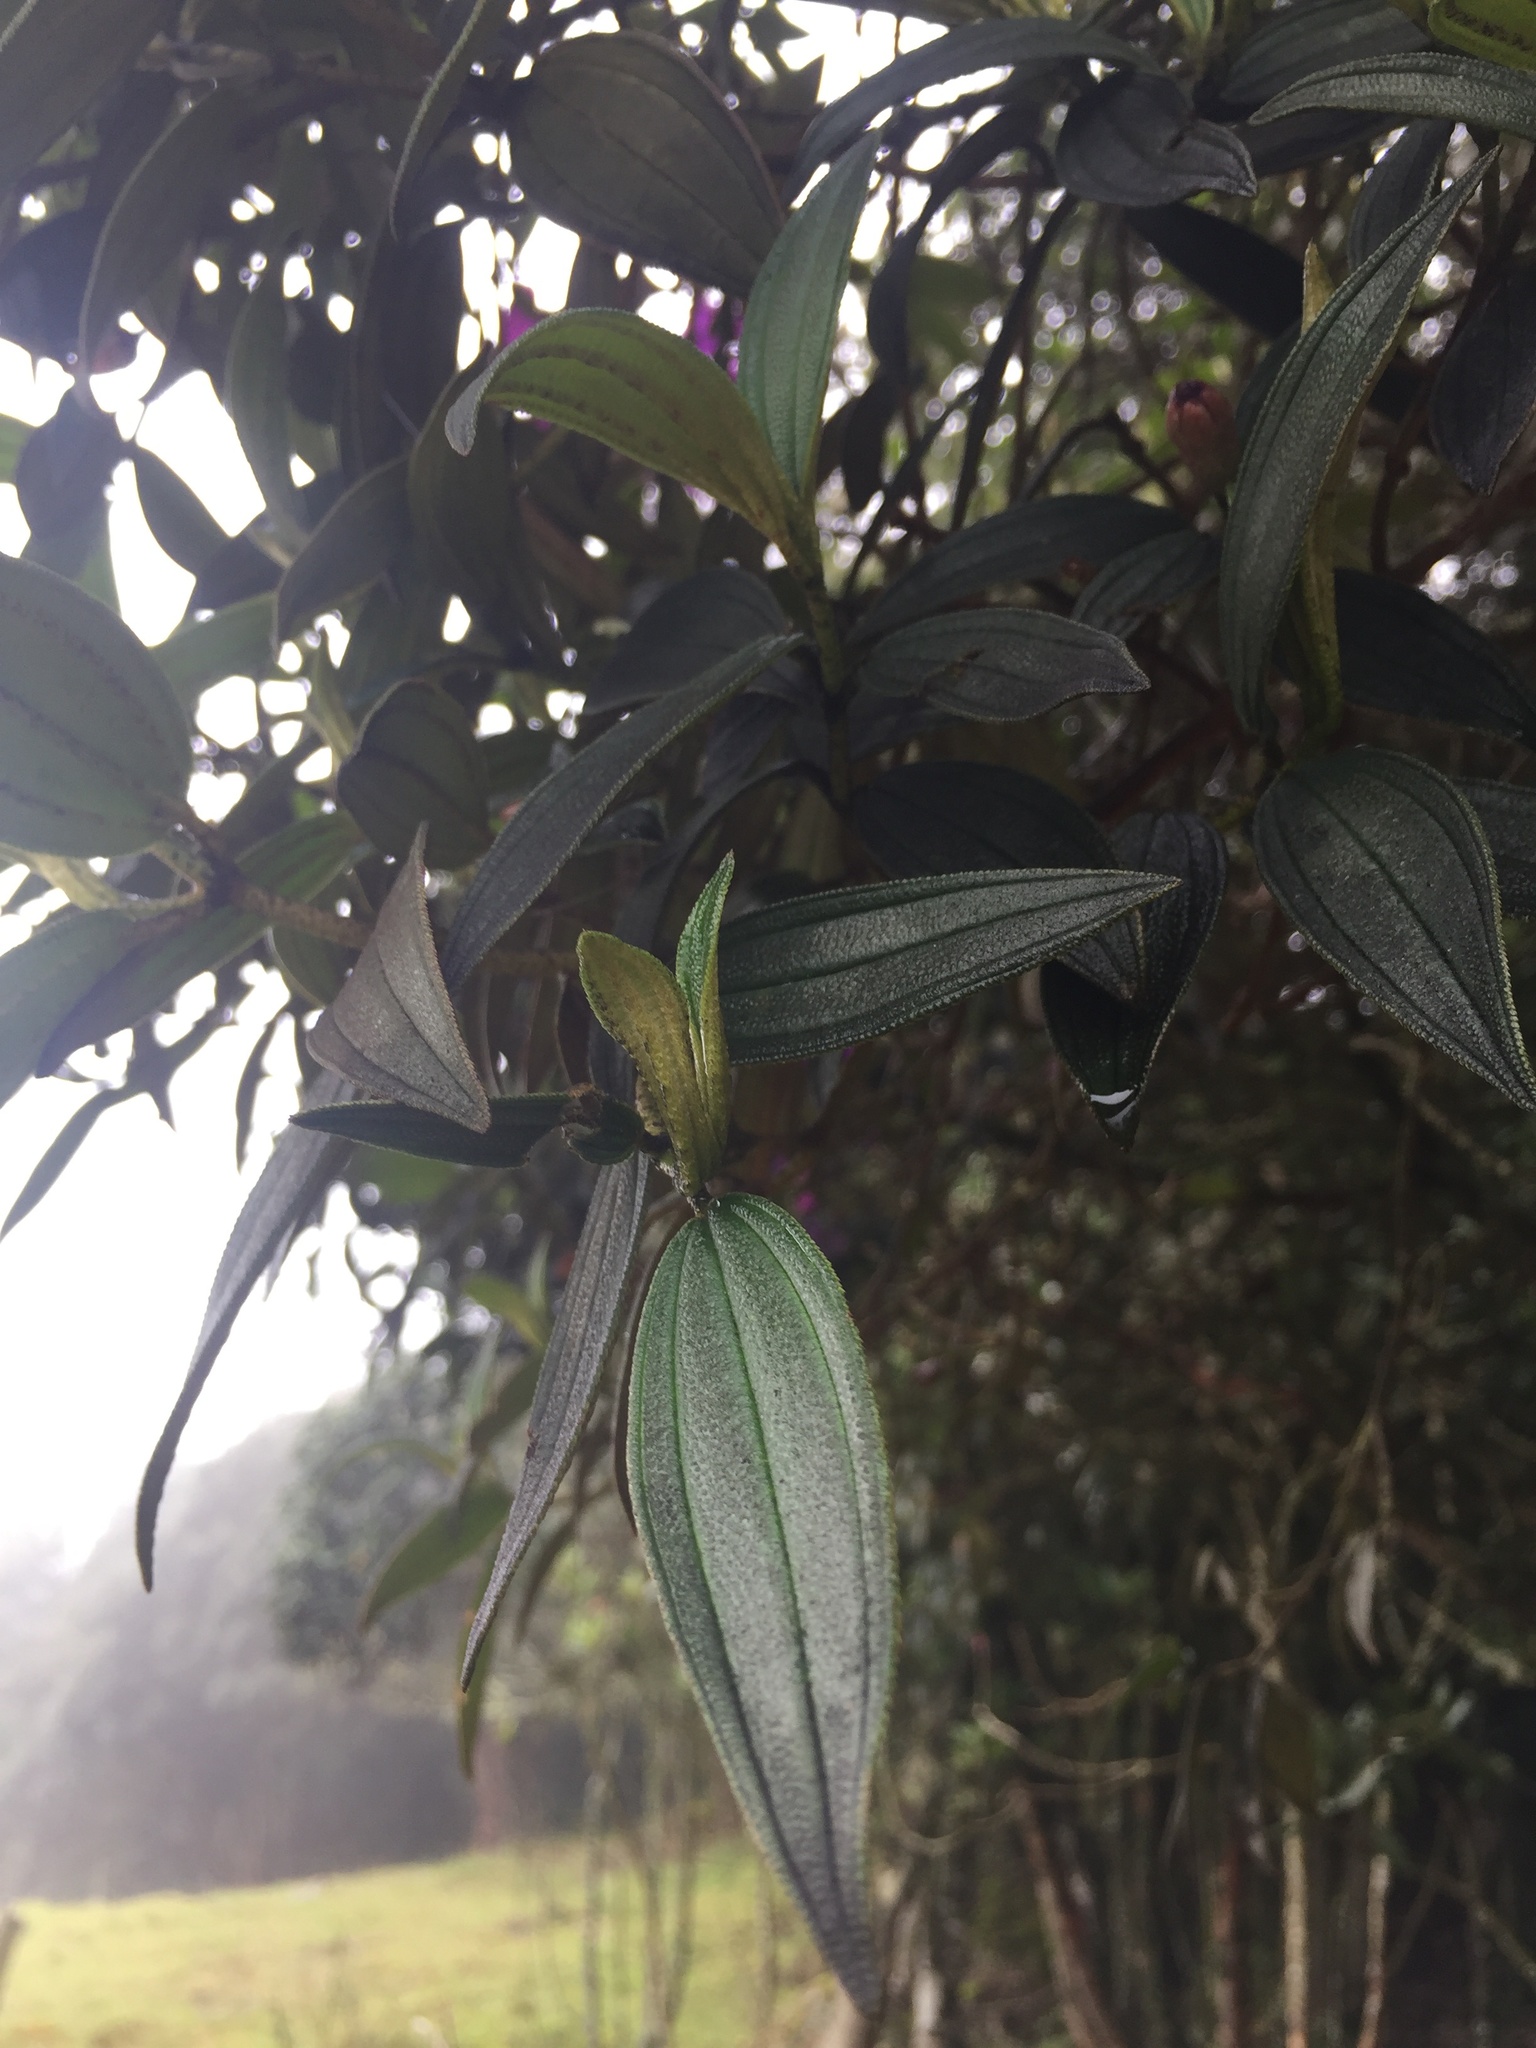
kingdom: Plantae
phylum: Tracheophyta
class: Magnoliopsida
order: Myrtales
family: Melastomataceae
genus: Andesanthus
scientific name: Andesanthus lepidotus
